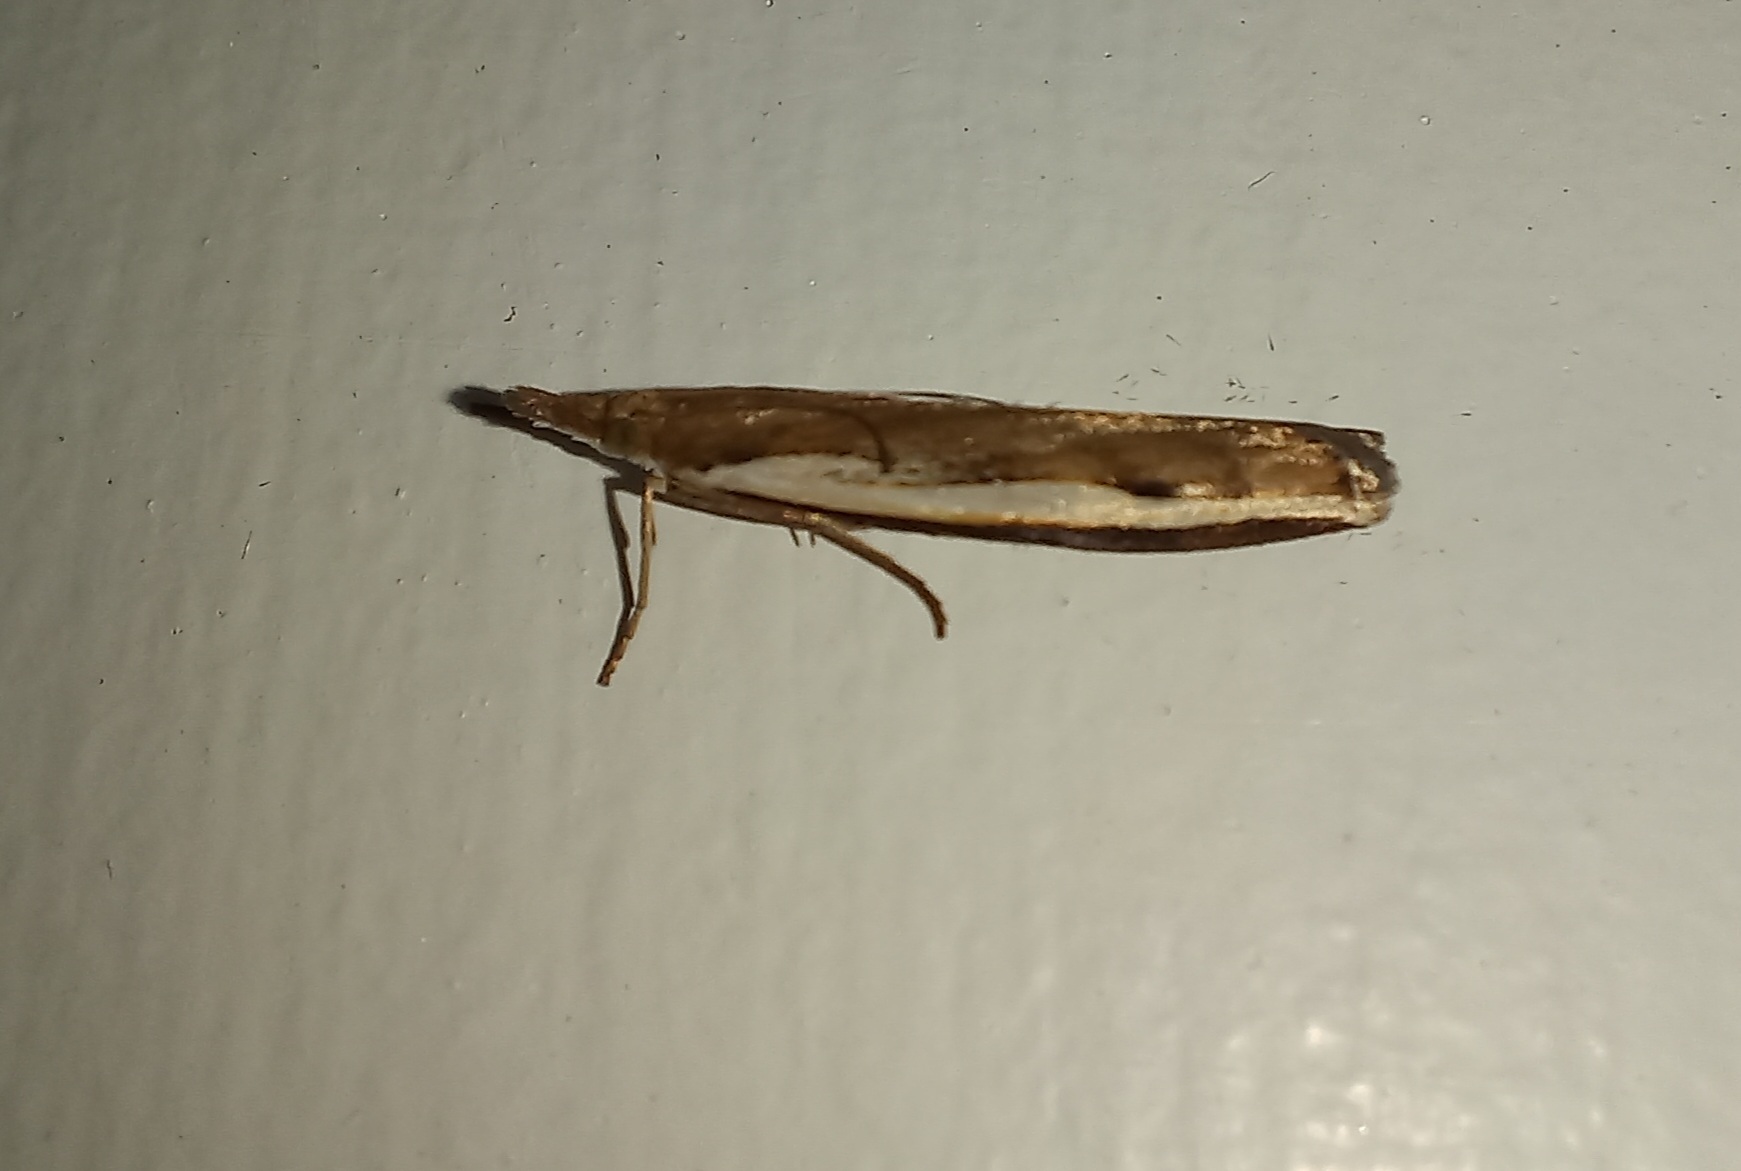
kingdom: Animalia
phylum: Arthropoda
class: Insecta
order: Lepidoptera
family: Crambidae
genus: Orocrambus
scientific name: Orocrambus flexuosellus
